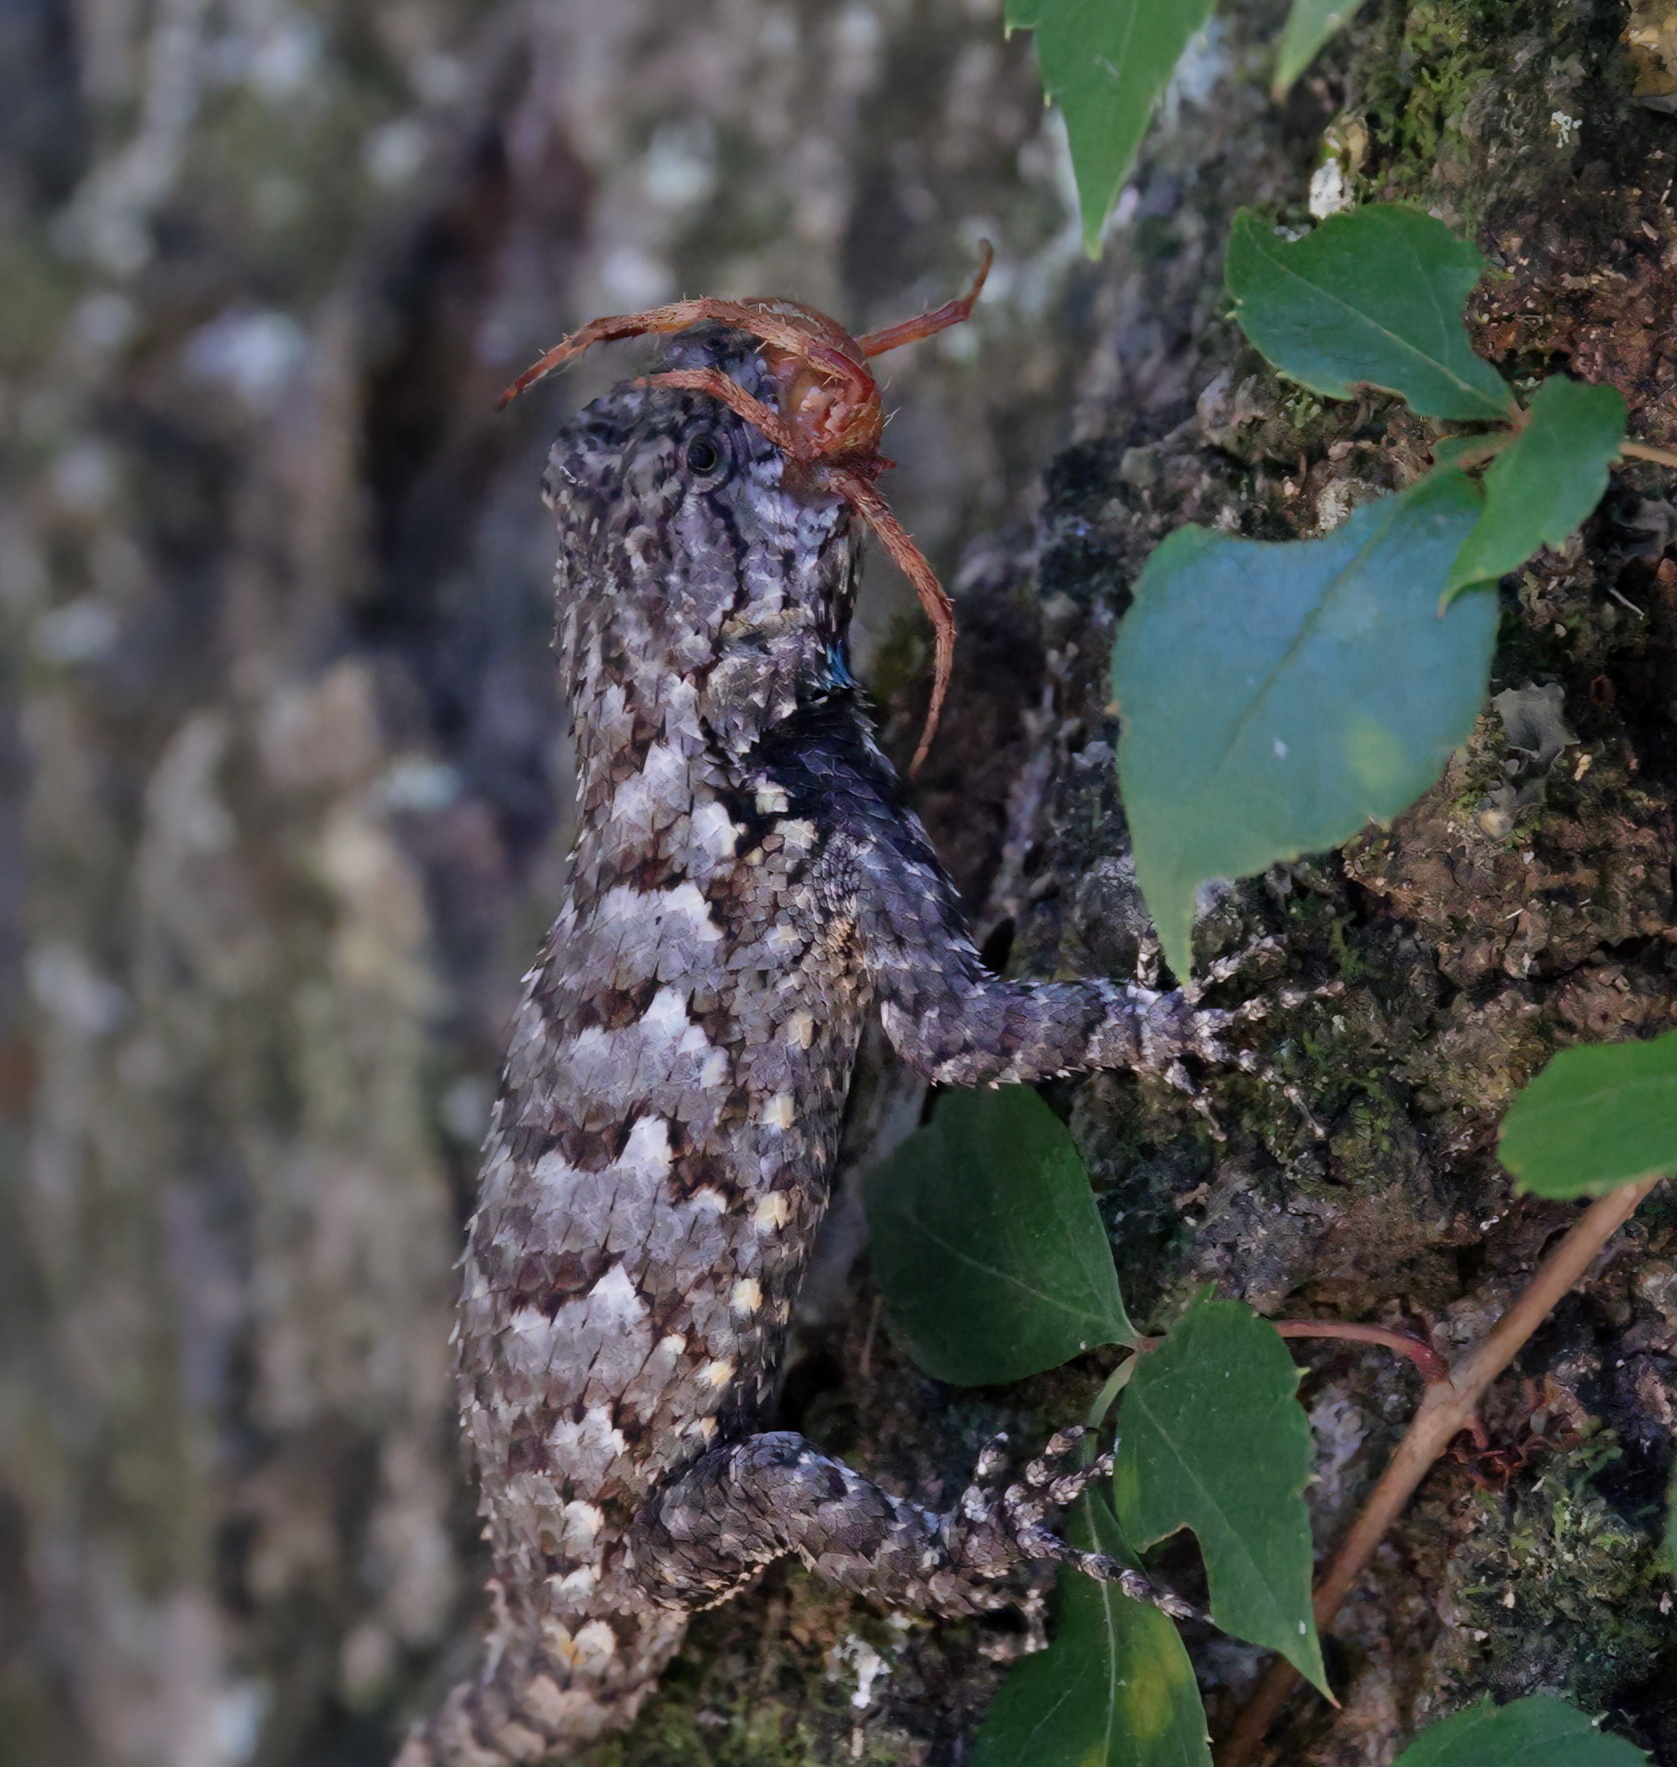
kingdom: Animalia
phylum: Chordata
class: Squamata
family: Phrynosomatidae
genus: Sceloporus
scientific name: Sceloporus undulatus
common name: Eastern fence lizard
